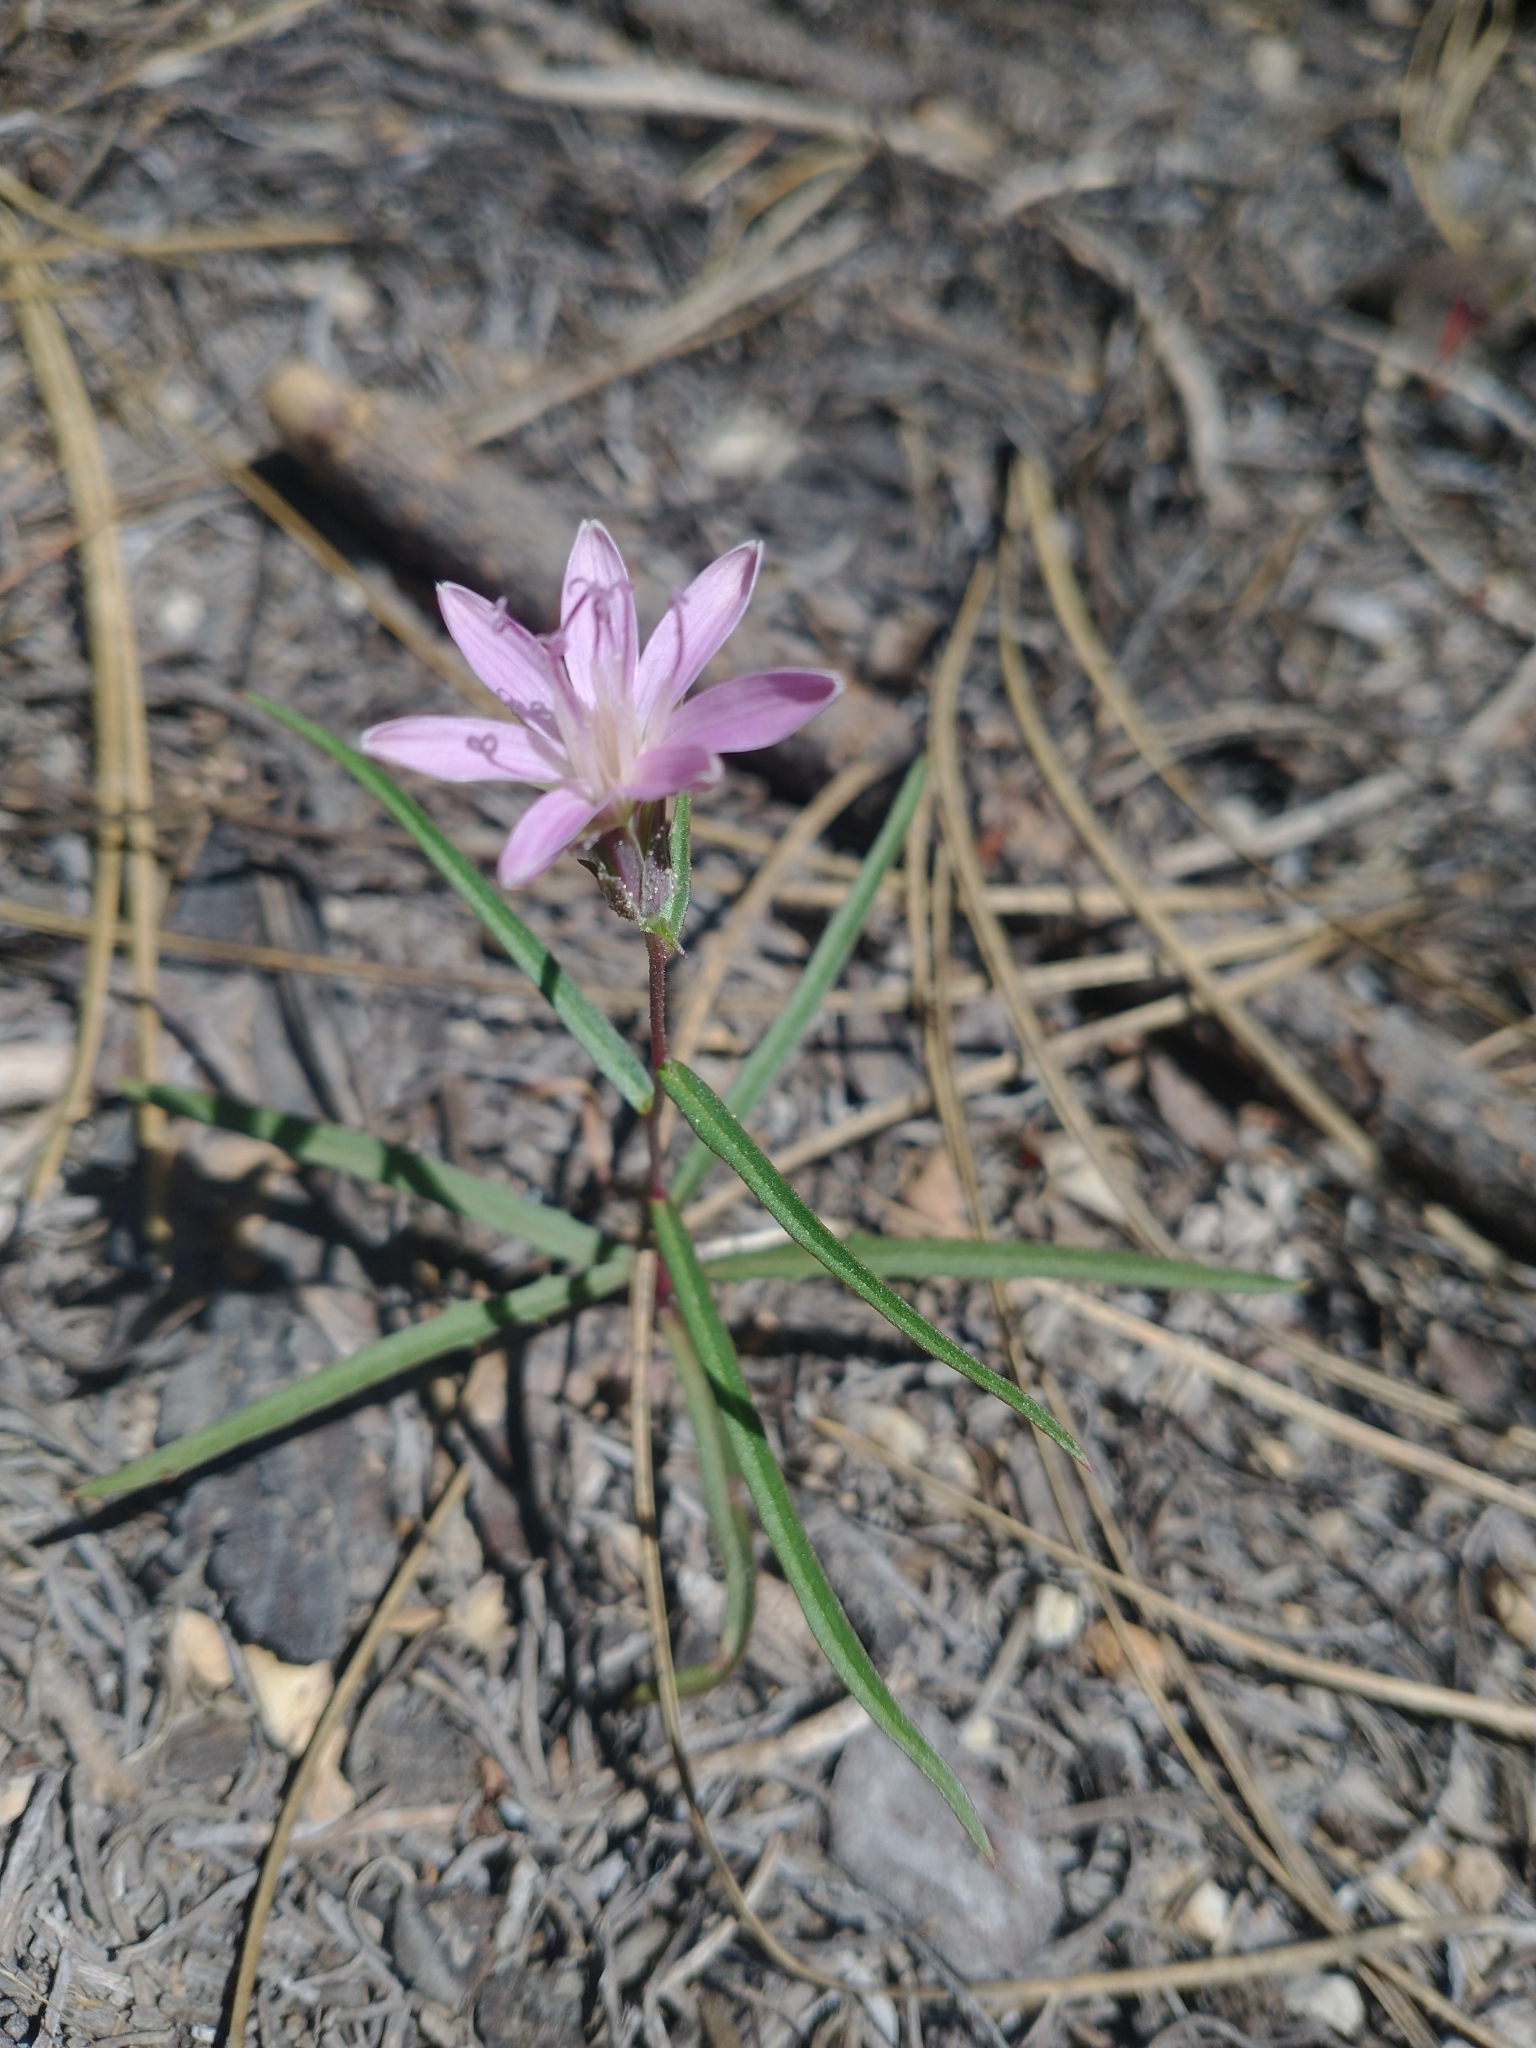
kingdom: Plantae
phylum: Tracheophyta
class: Magnoliopsida
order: Asterales
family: Asteraceae
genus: Stephanomeria
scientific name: Stephanomeria lactucina
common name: Large-flowered wirelettuce
